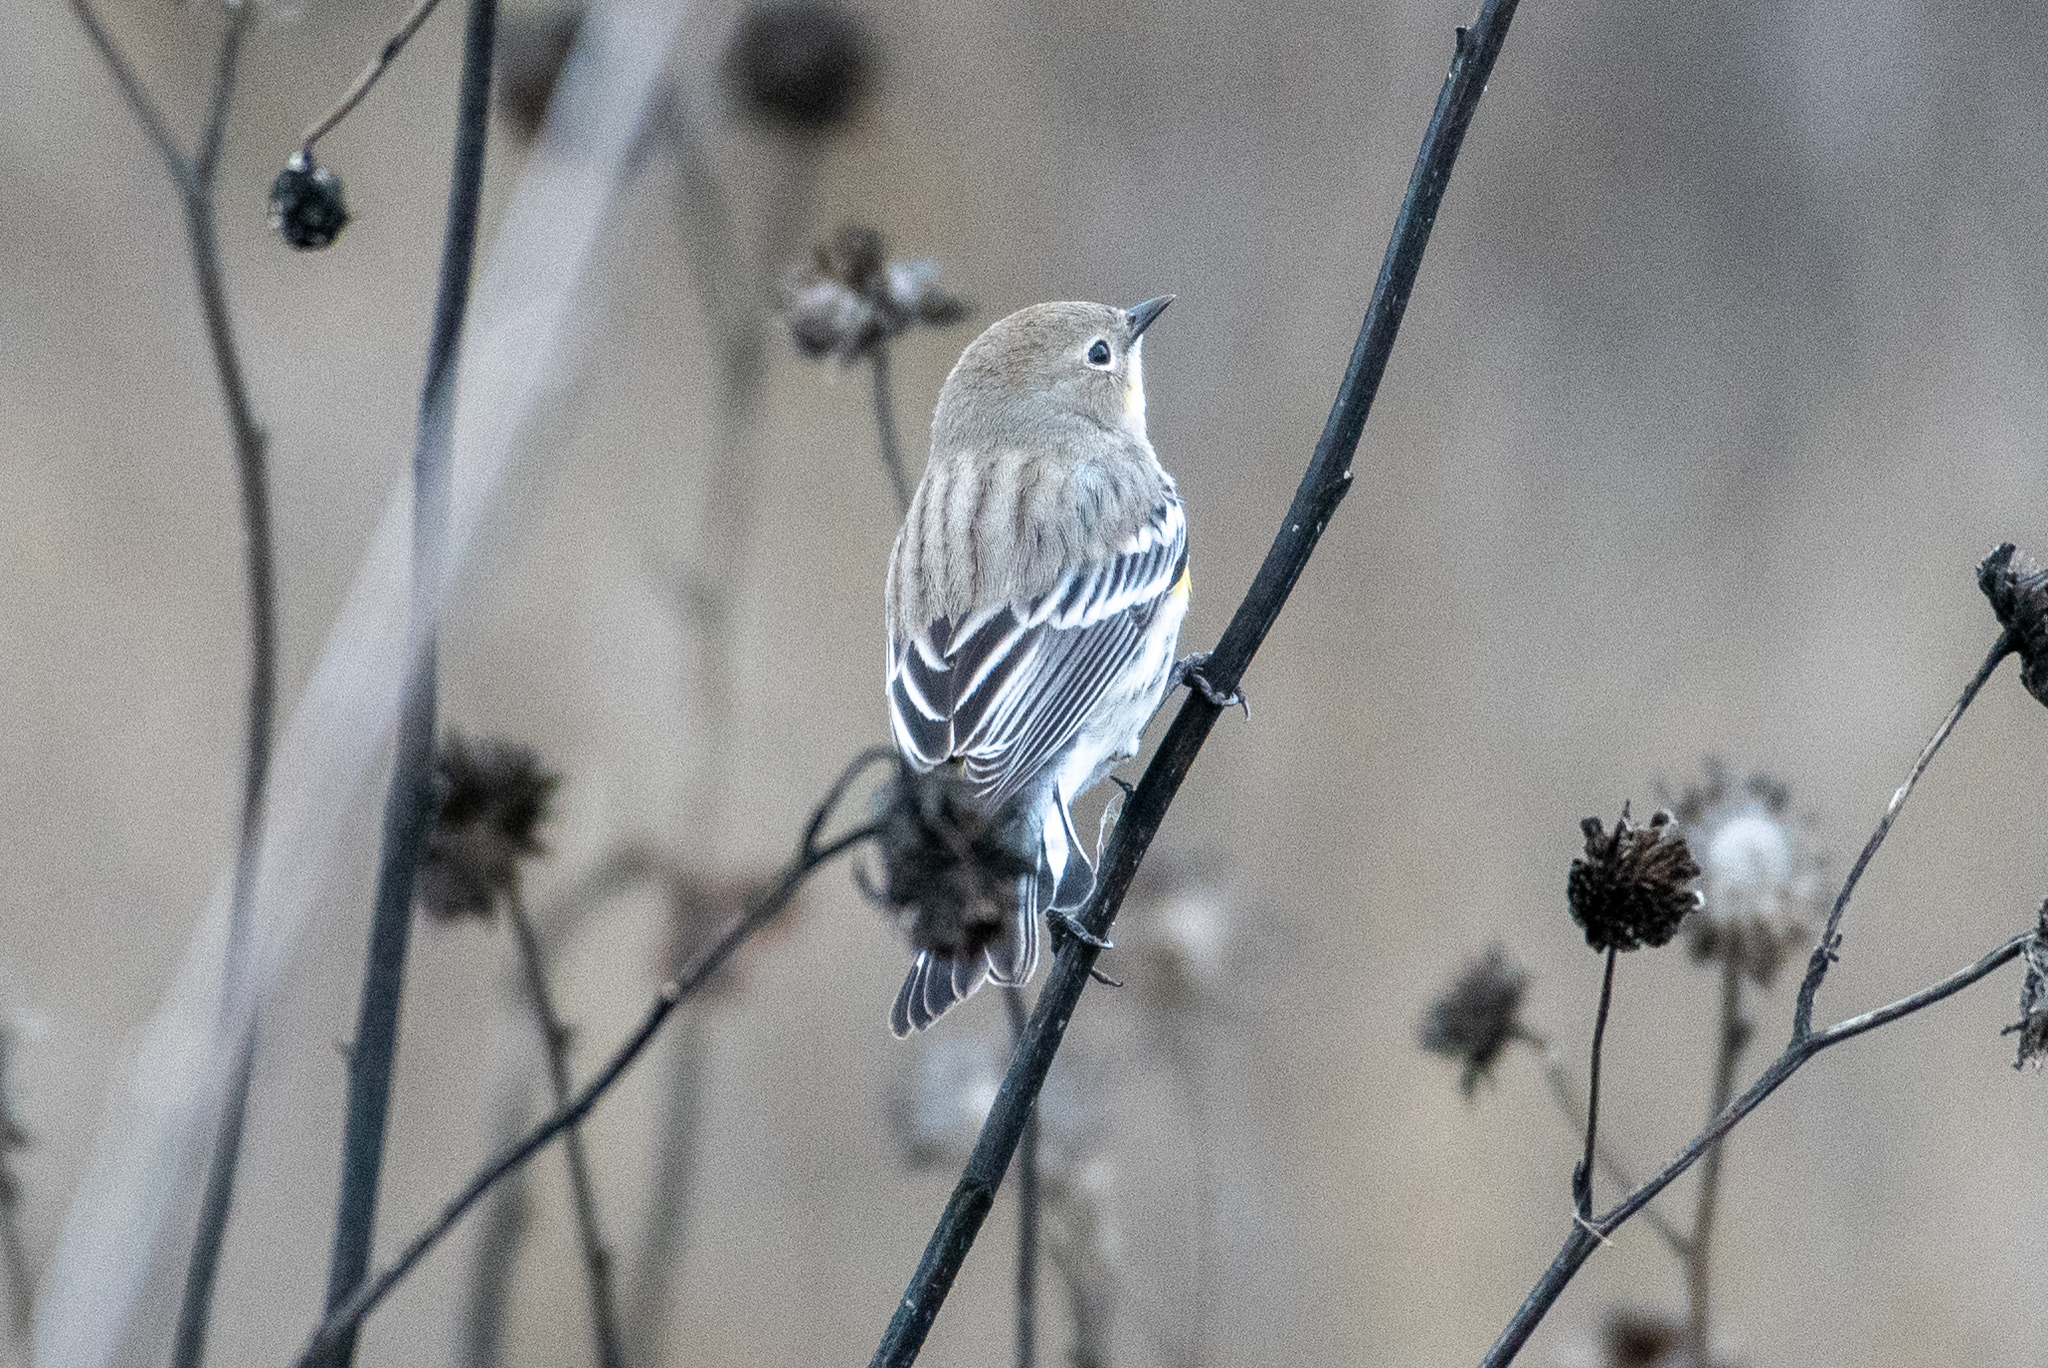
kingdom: Animalia
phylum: Chordata
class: Aves
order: Passeriformes
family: Parulidae
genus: Setophaga
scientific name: Setophaga coronata
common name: Myrtle warbler
